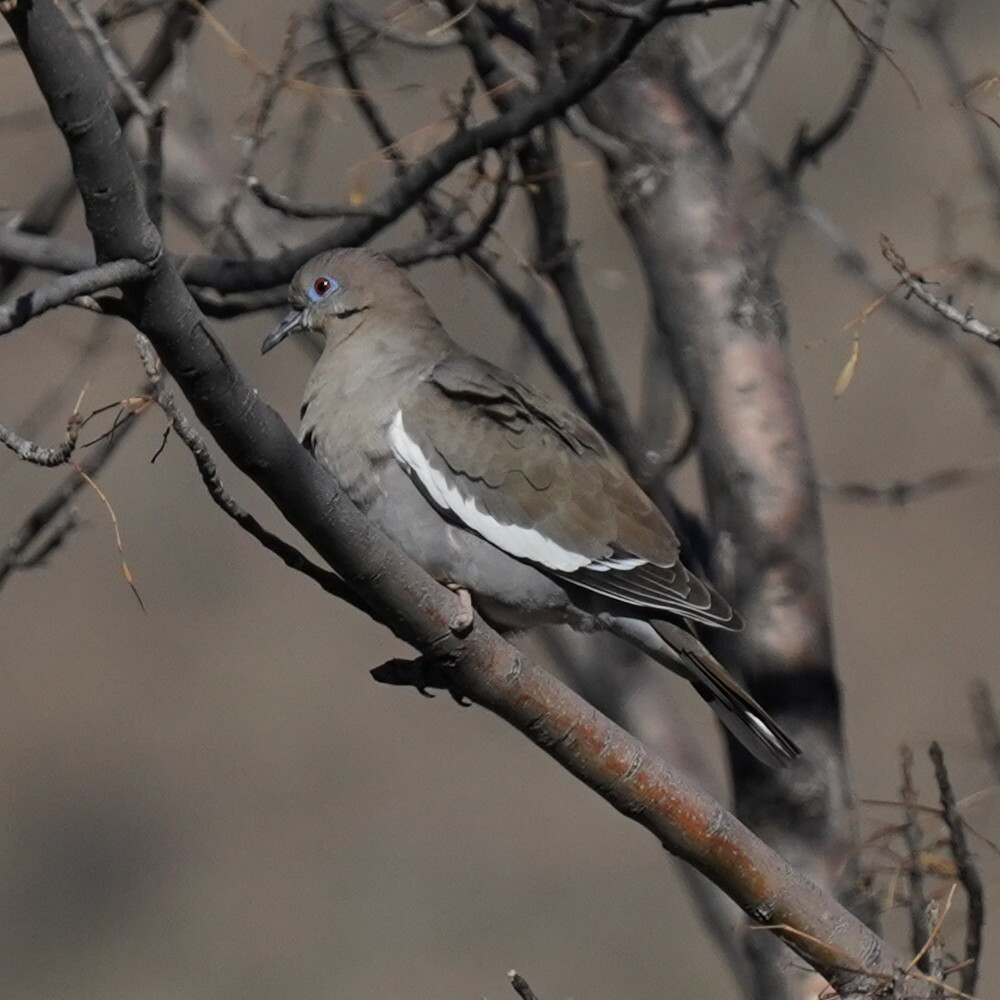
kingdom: Animalia
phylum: Chordata
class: Aves
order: Columbiformes
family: Columbidae
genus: Zenaida
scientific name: Zenaida asiatica
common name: White-winged dove
